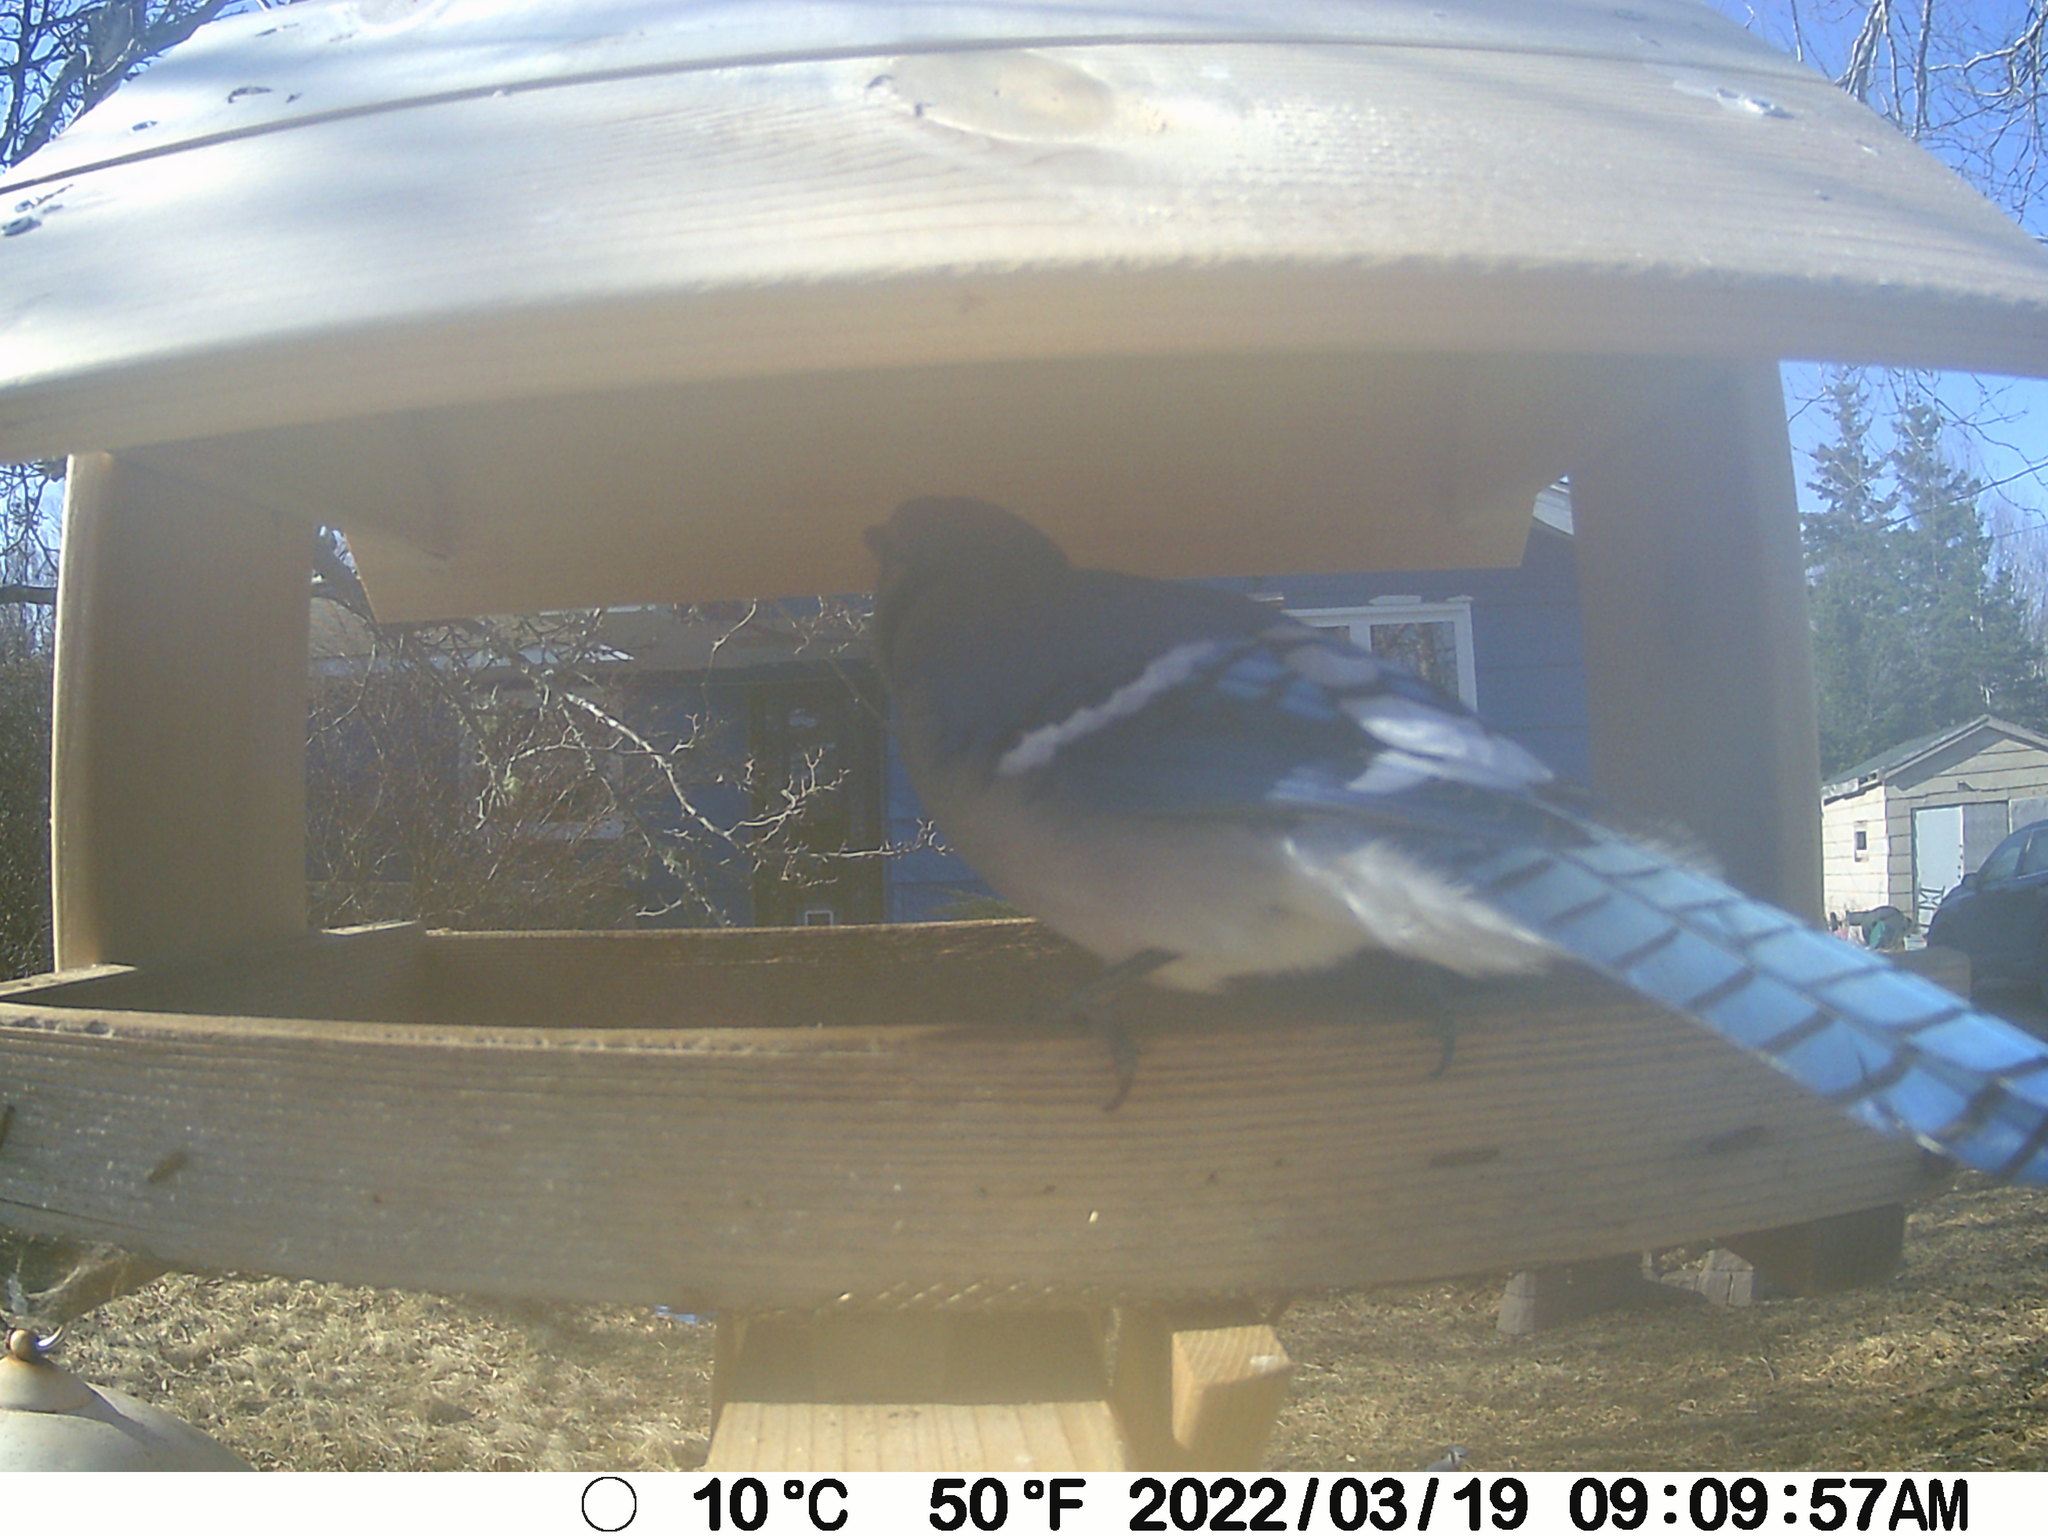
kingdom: Animalia
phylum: Chordata
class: Aves
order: Passeriformes
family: Corvidae
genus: Cyanocitta
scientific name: Cyanocitta cristata
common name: Blue jay
